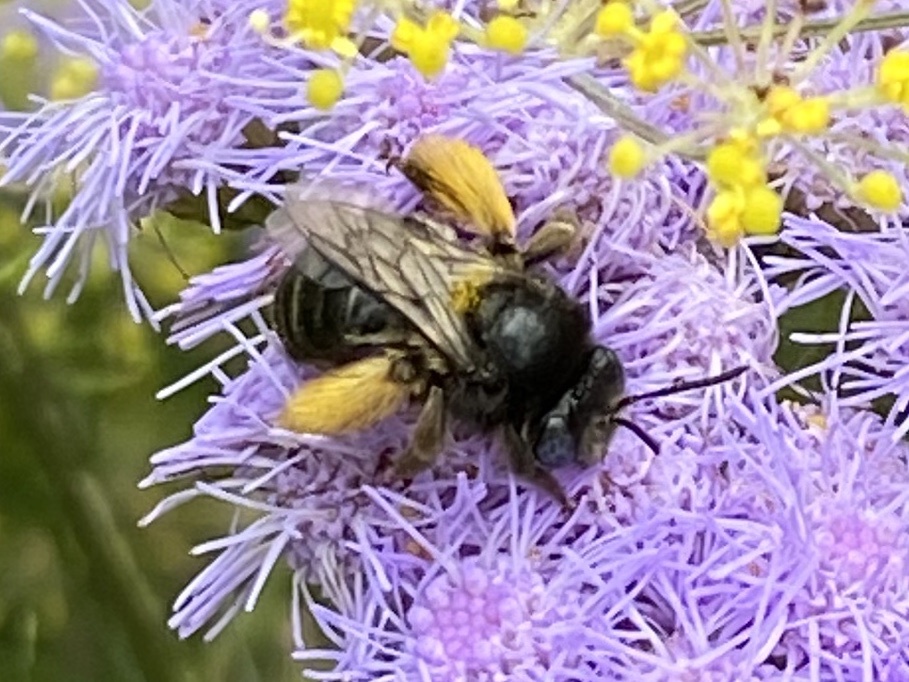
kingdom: Animalia
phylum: Arthropoda
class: Insecta
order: Hymenoptera
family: Apidae
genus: Melissodes
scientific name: Melissodes druriellus
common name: Drury's long-horned bee
